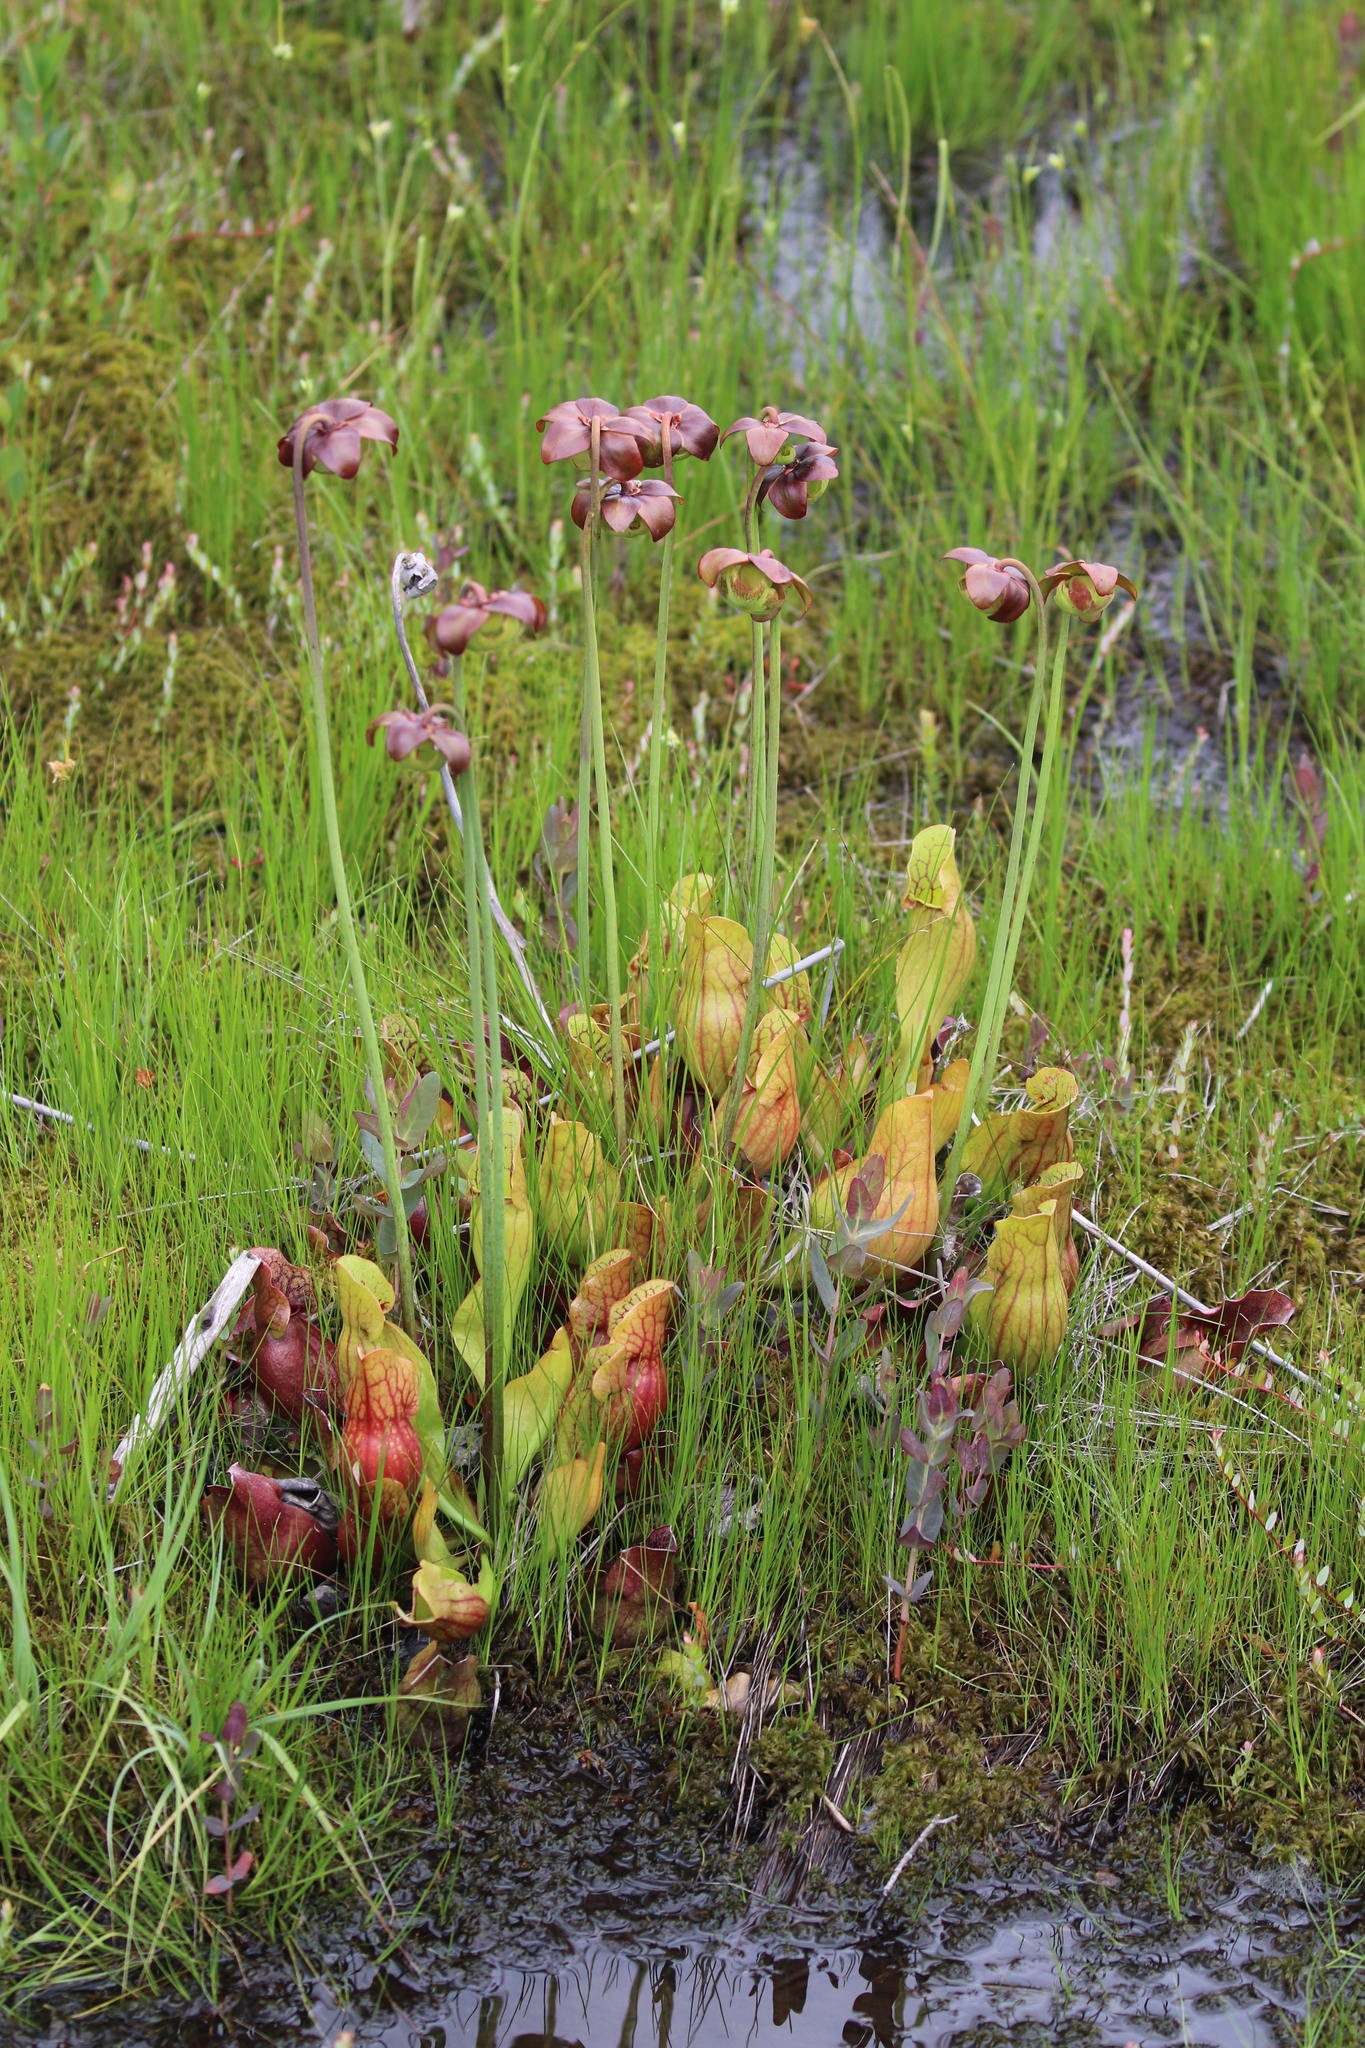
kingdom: Plantae
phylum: Tracheophyta
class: Magnoliopsida
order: Ericales
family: Sarraceniaceae
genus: Sarracenia
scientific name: Sarracenia purpurea
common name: Pitcherplant
